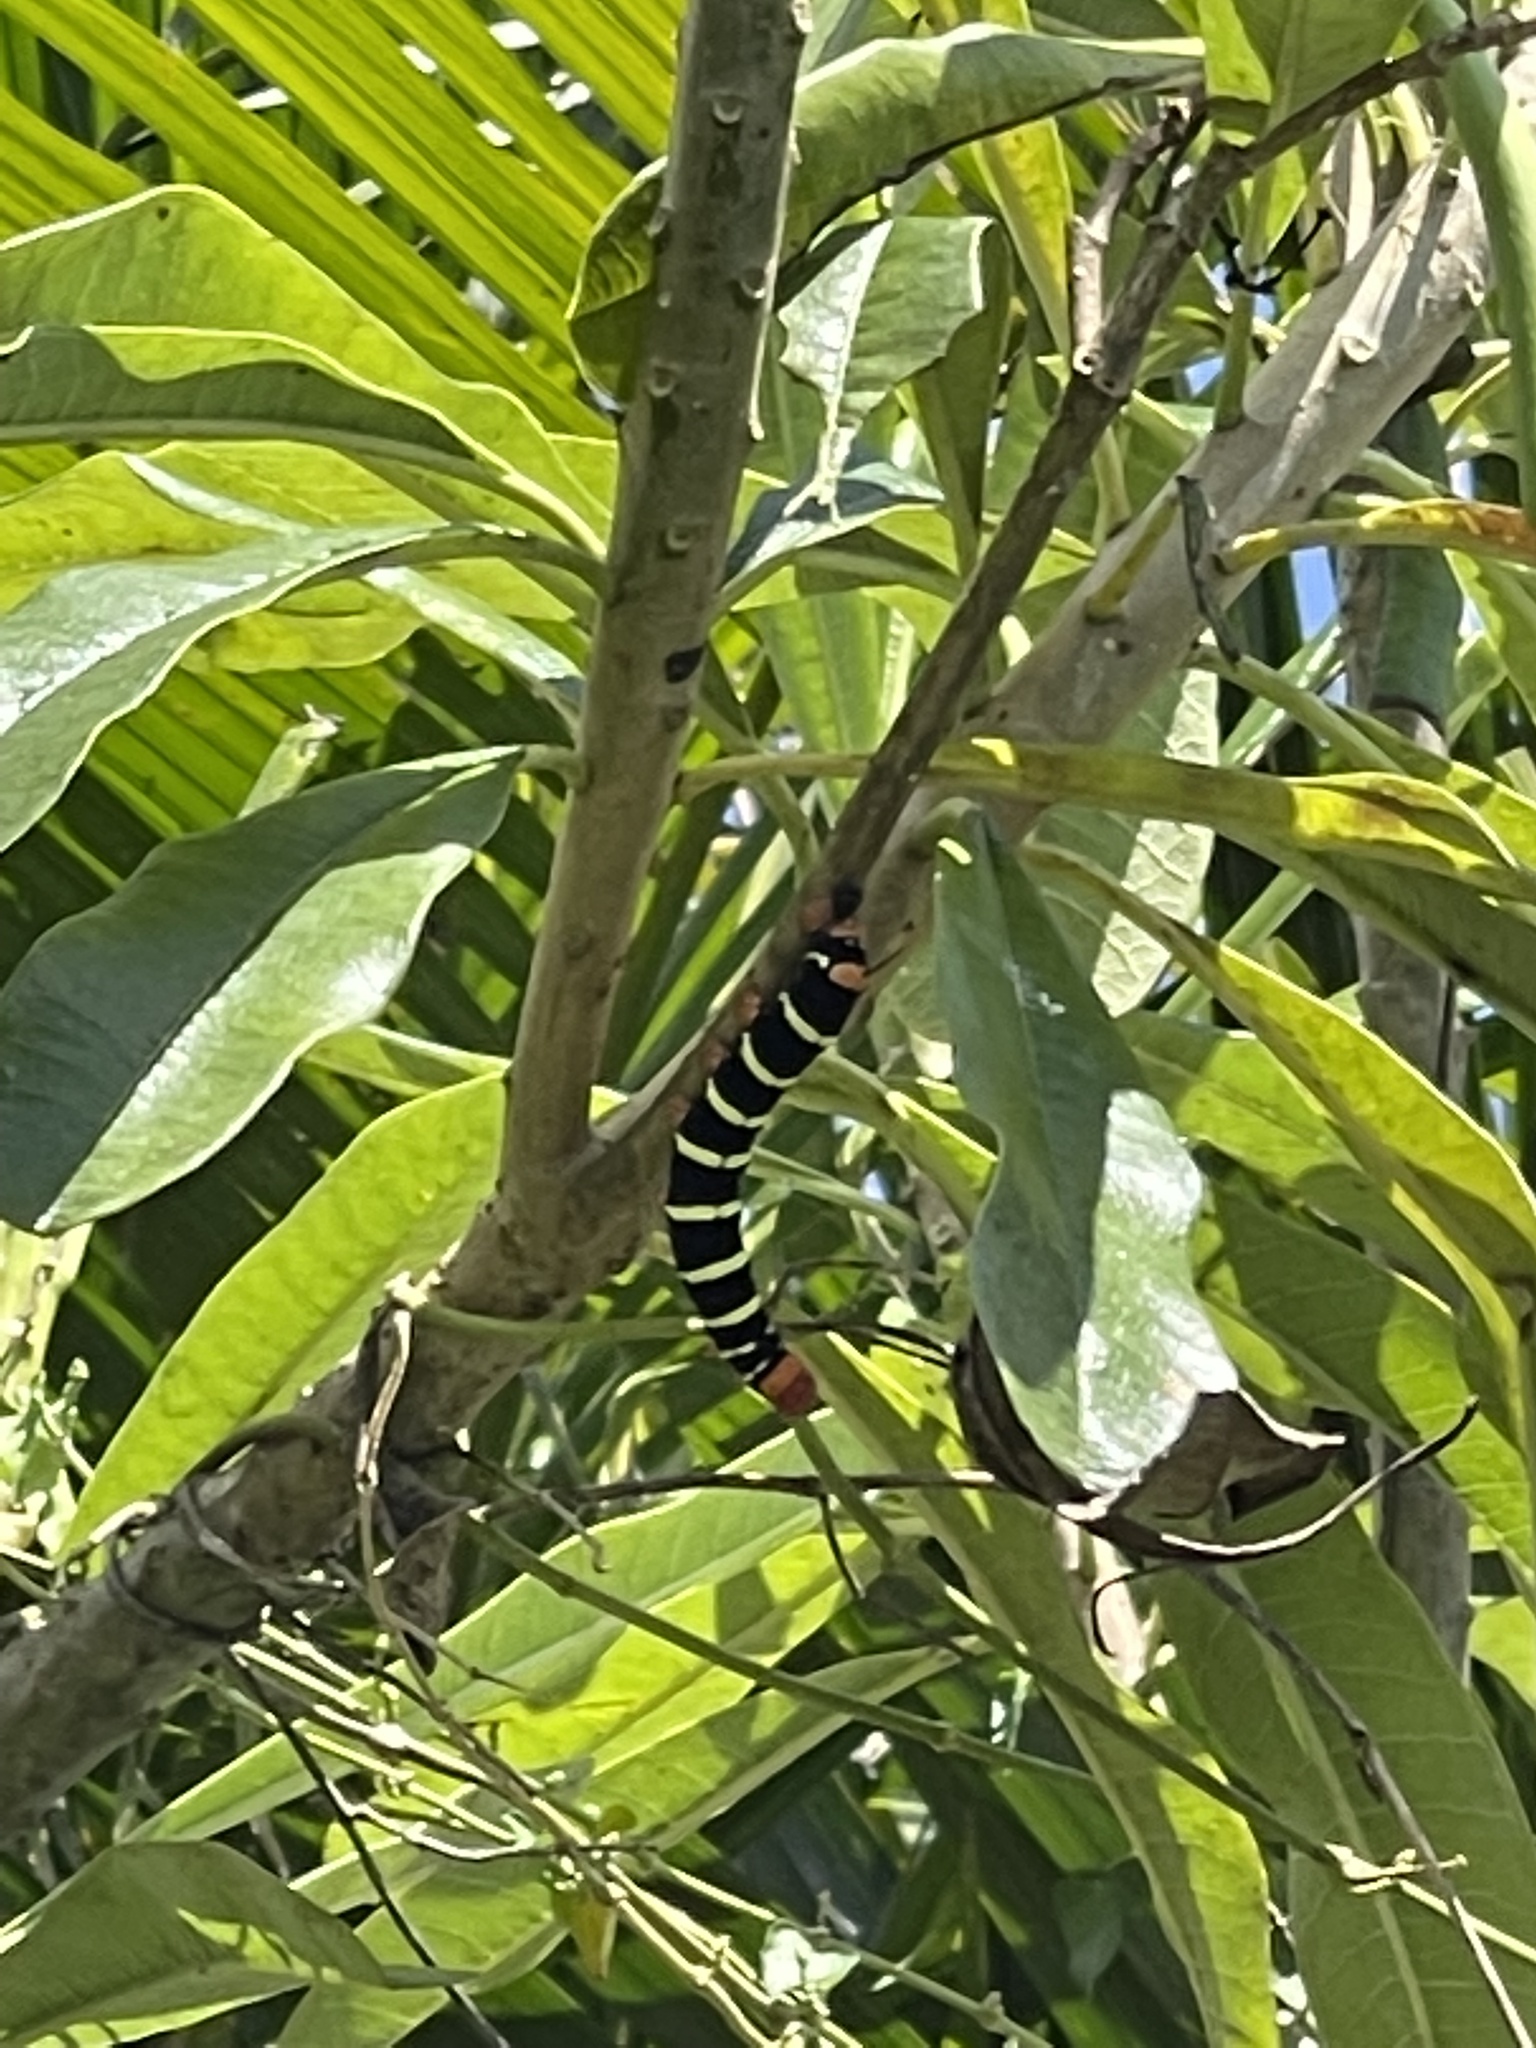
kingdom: Animalia
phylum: Arthropoda
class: Insecta
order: Lepidoptera
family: Sphingidae
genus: Pseudosphinx
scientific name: Pseudosphinx tetrio
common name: Tetrio sphinx
